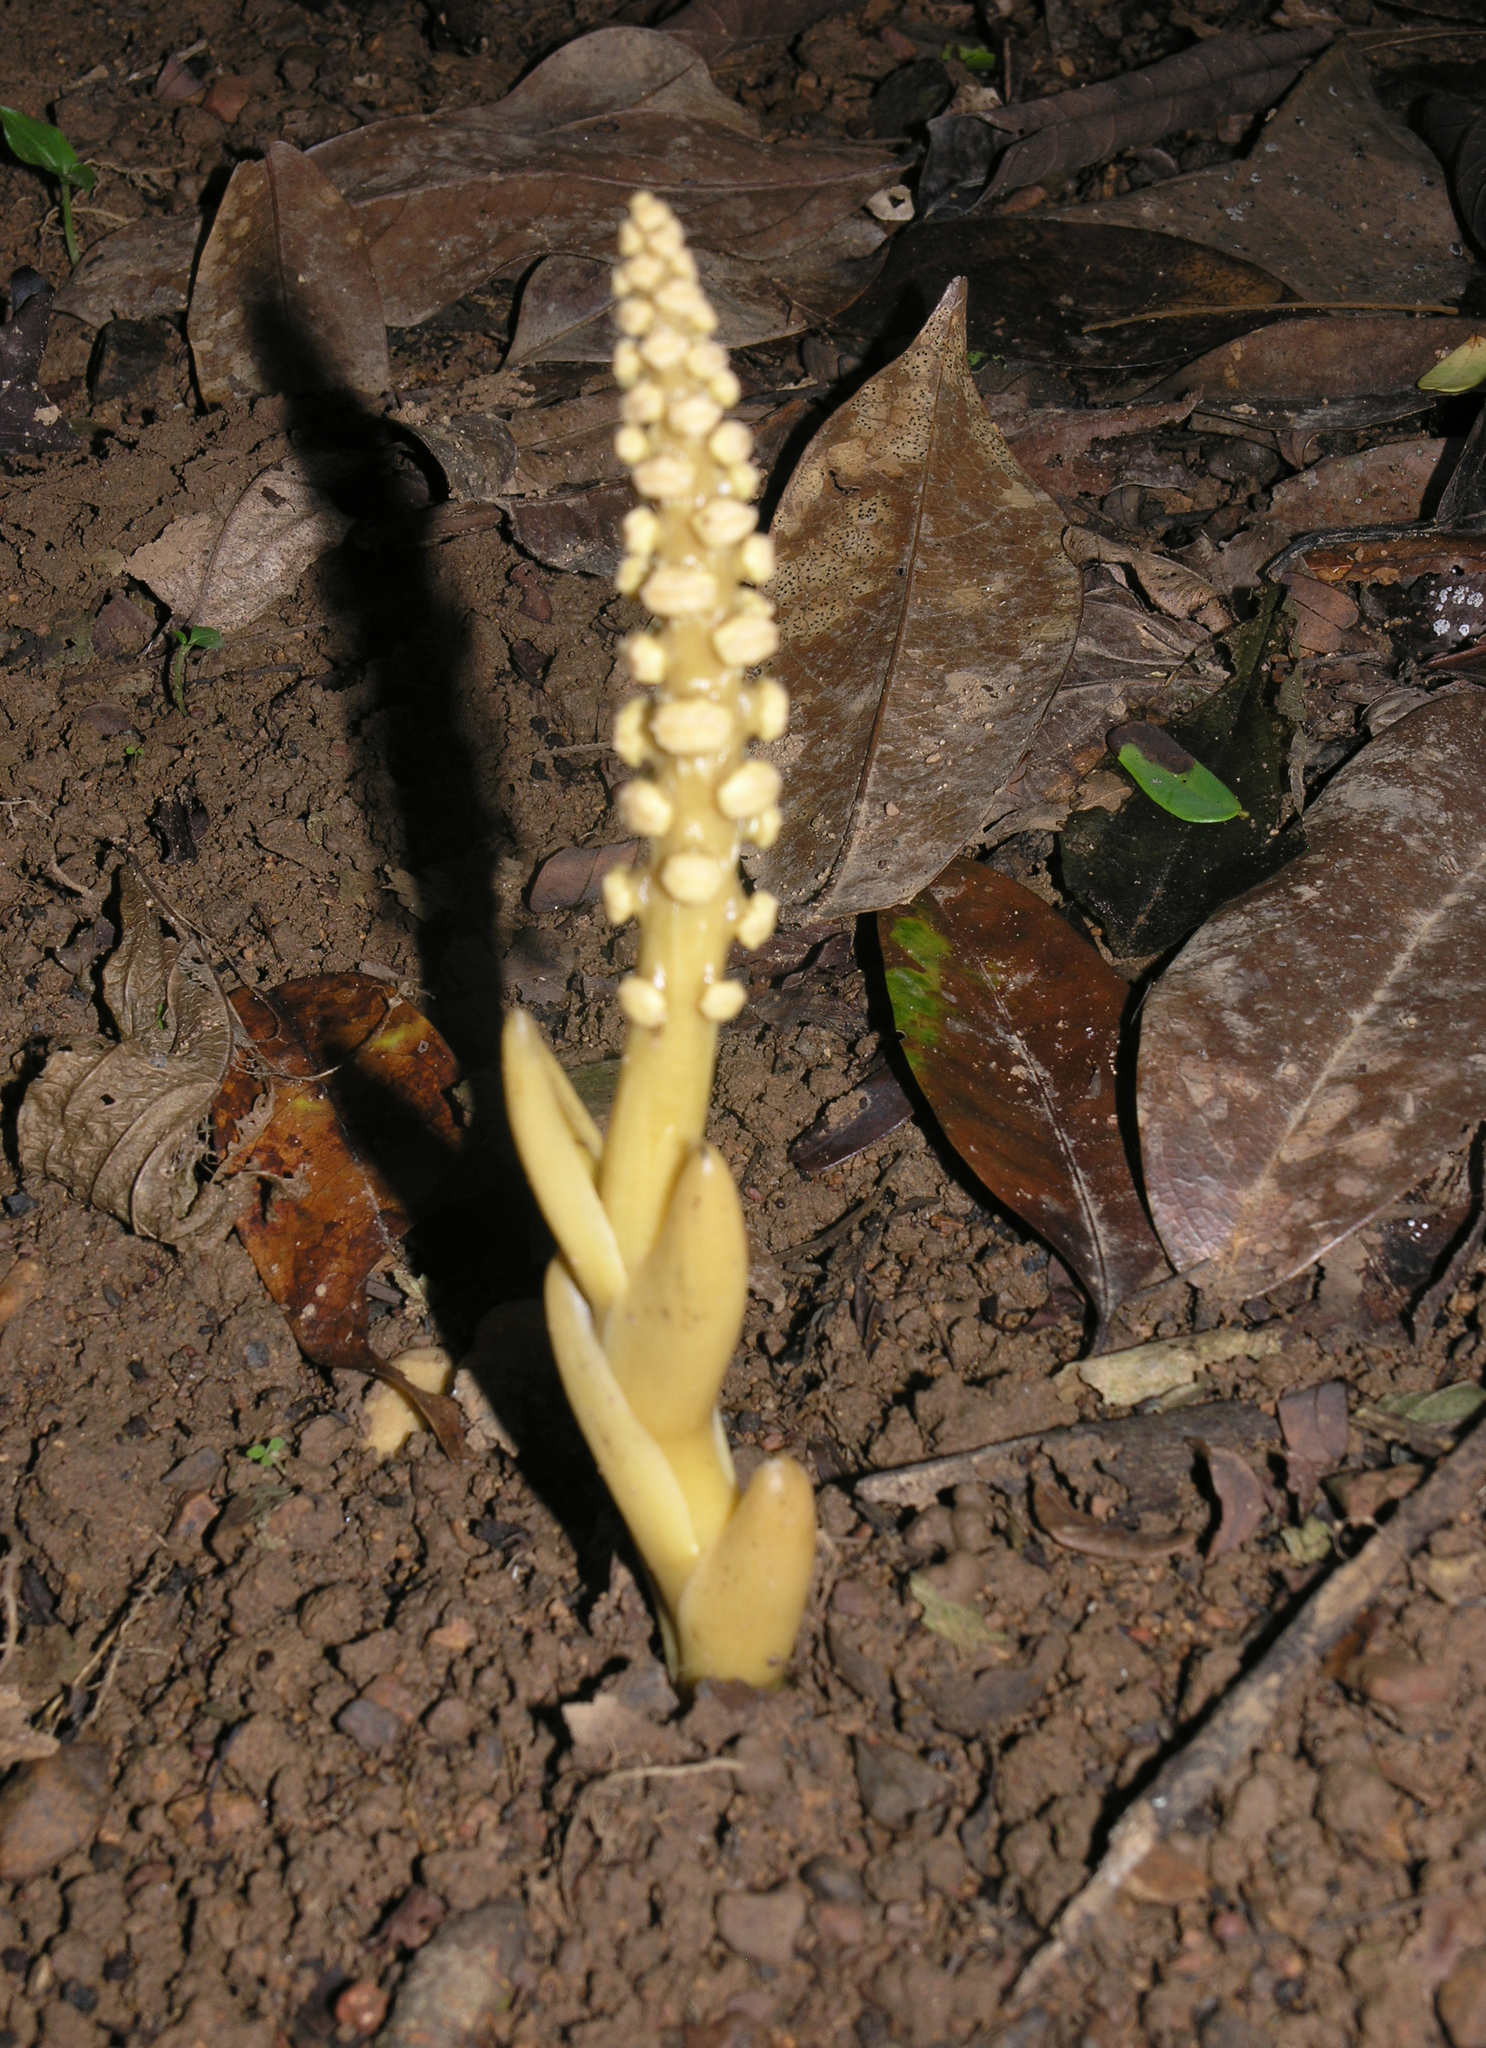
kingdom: Plantae
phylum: Tracheophyta
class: Magnoliopsida
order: Santalales
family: Balanophoraceae
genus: Balanophora
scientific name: Balanophora latisepala
